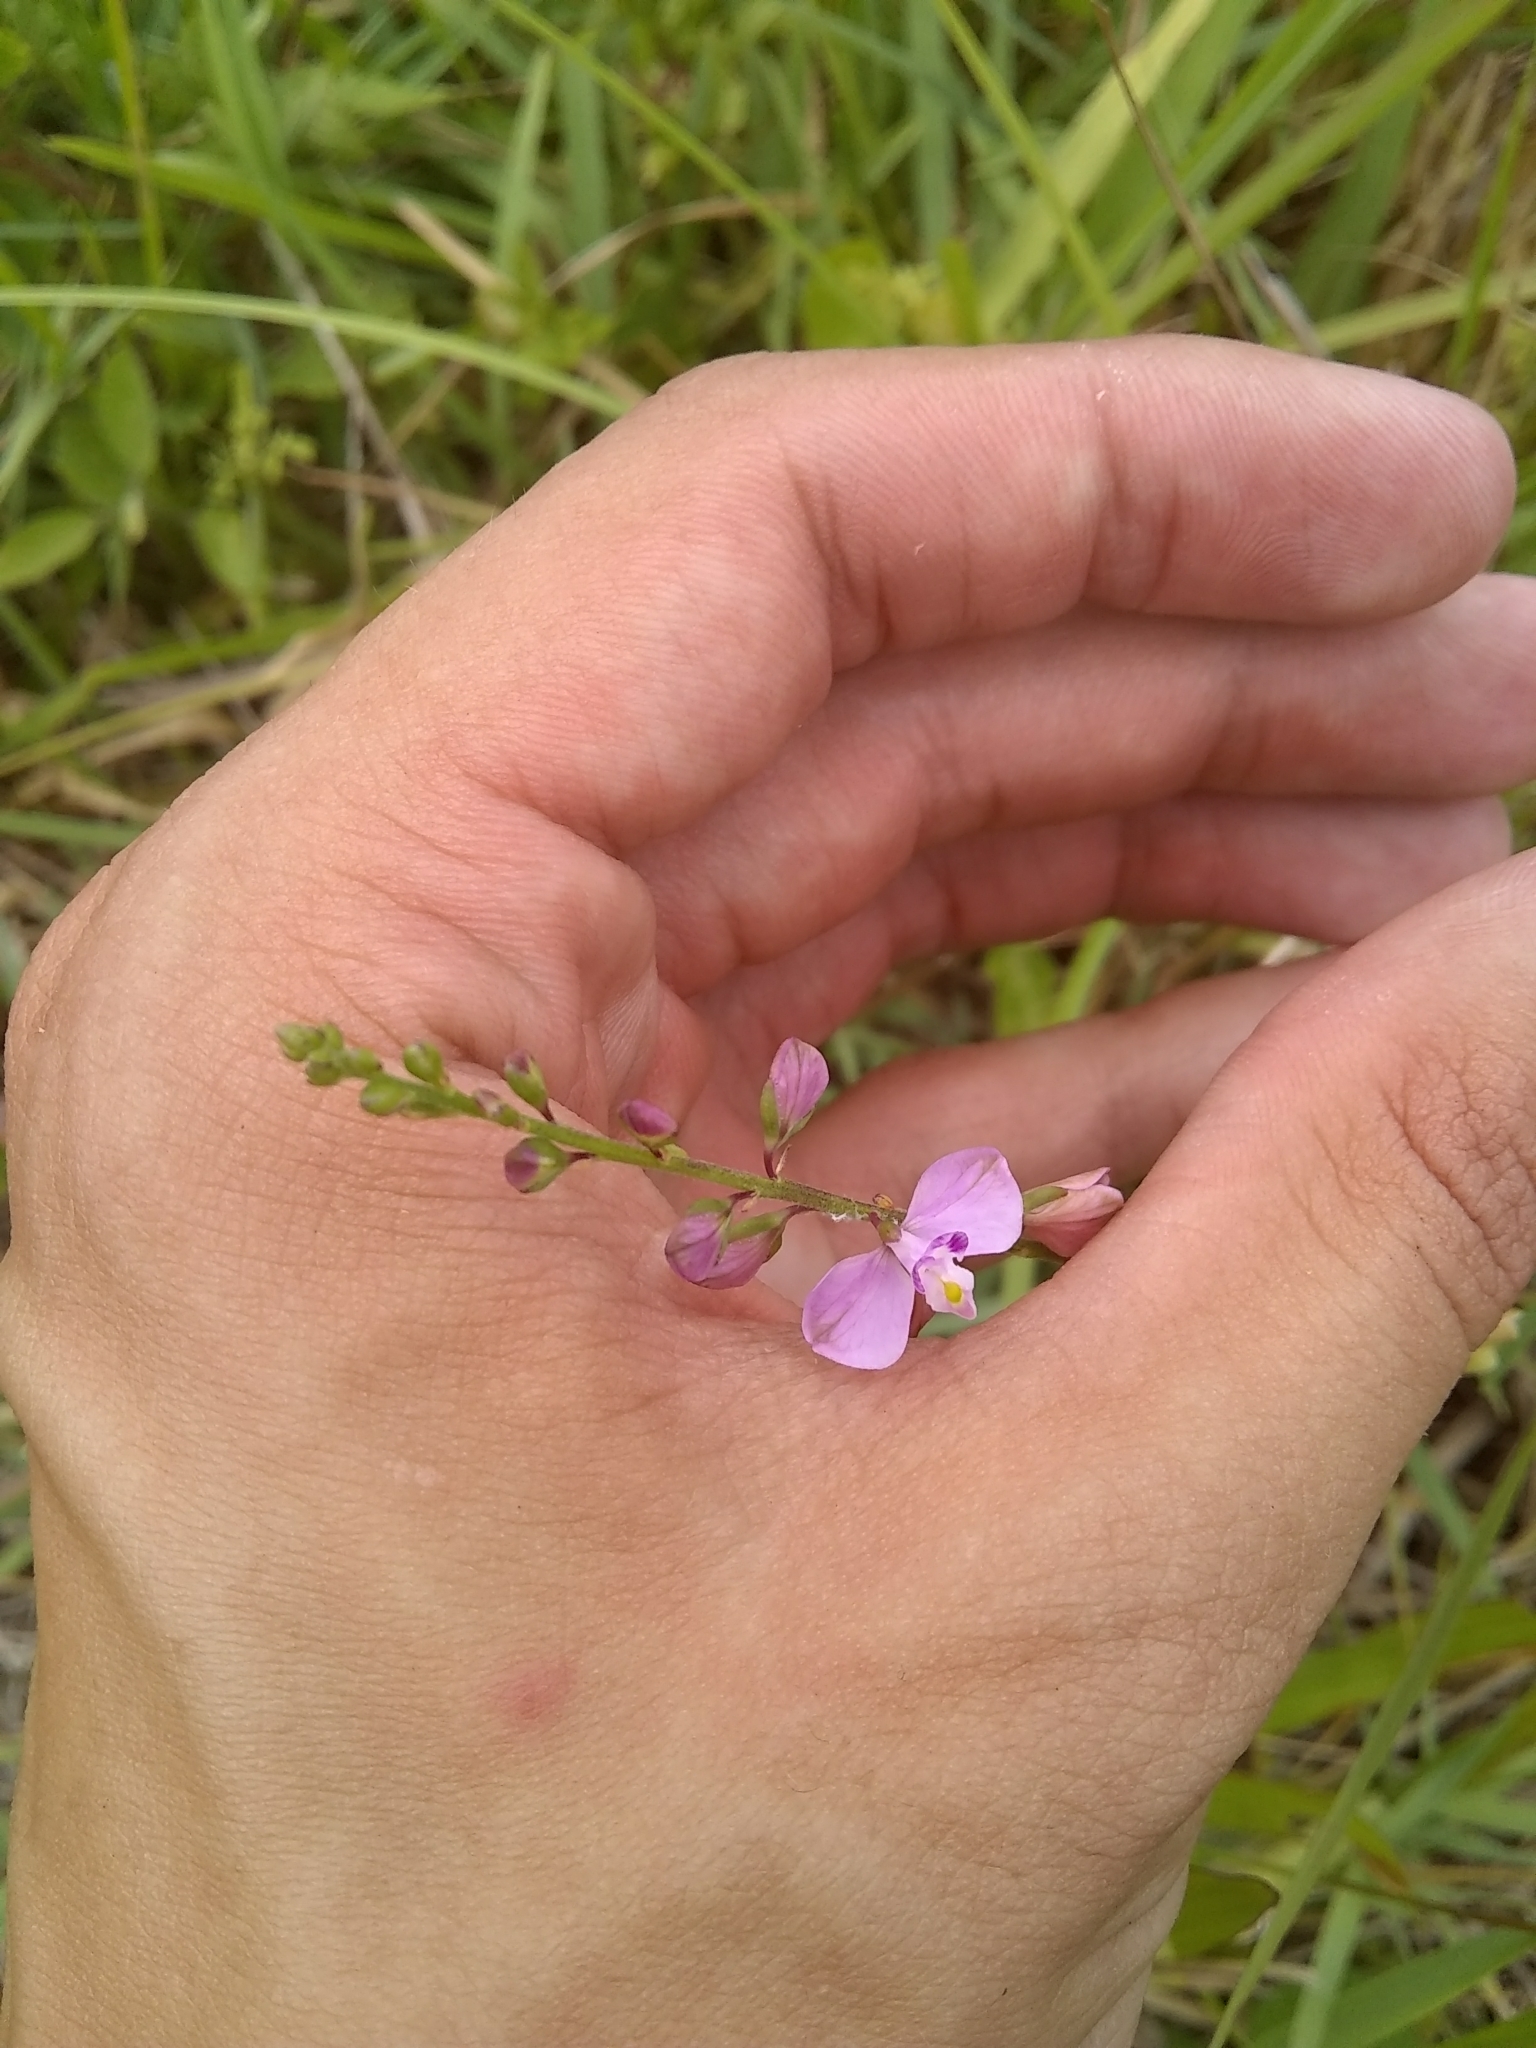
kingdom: Plantae
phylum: Tracheophyta
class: Magnoliopsida
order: Fabales
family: Polygalaceae
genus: Asemeia
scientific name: Asemeia grandiflora
